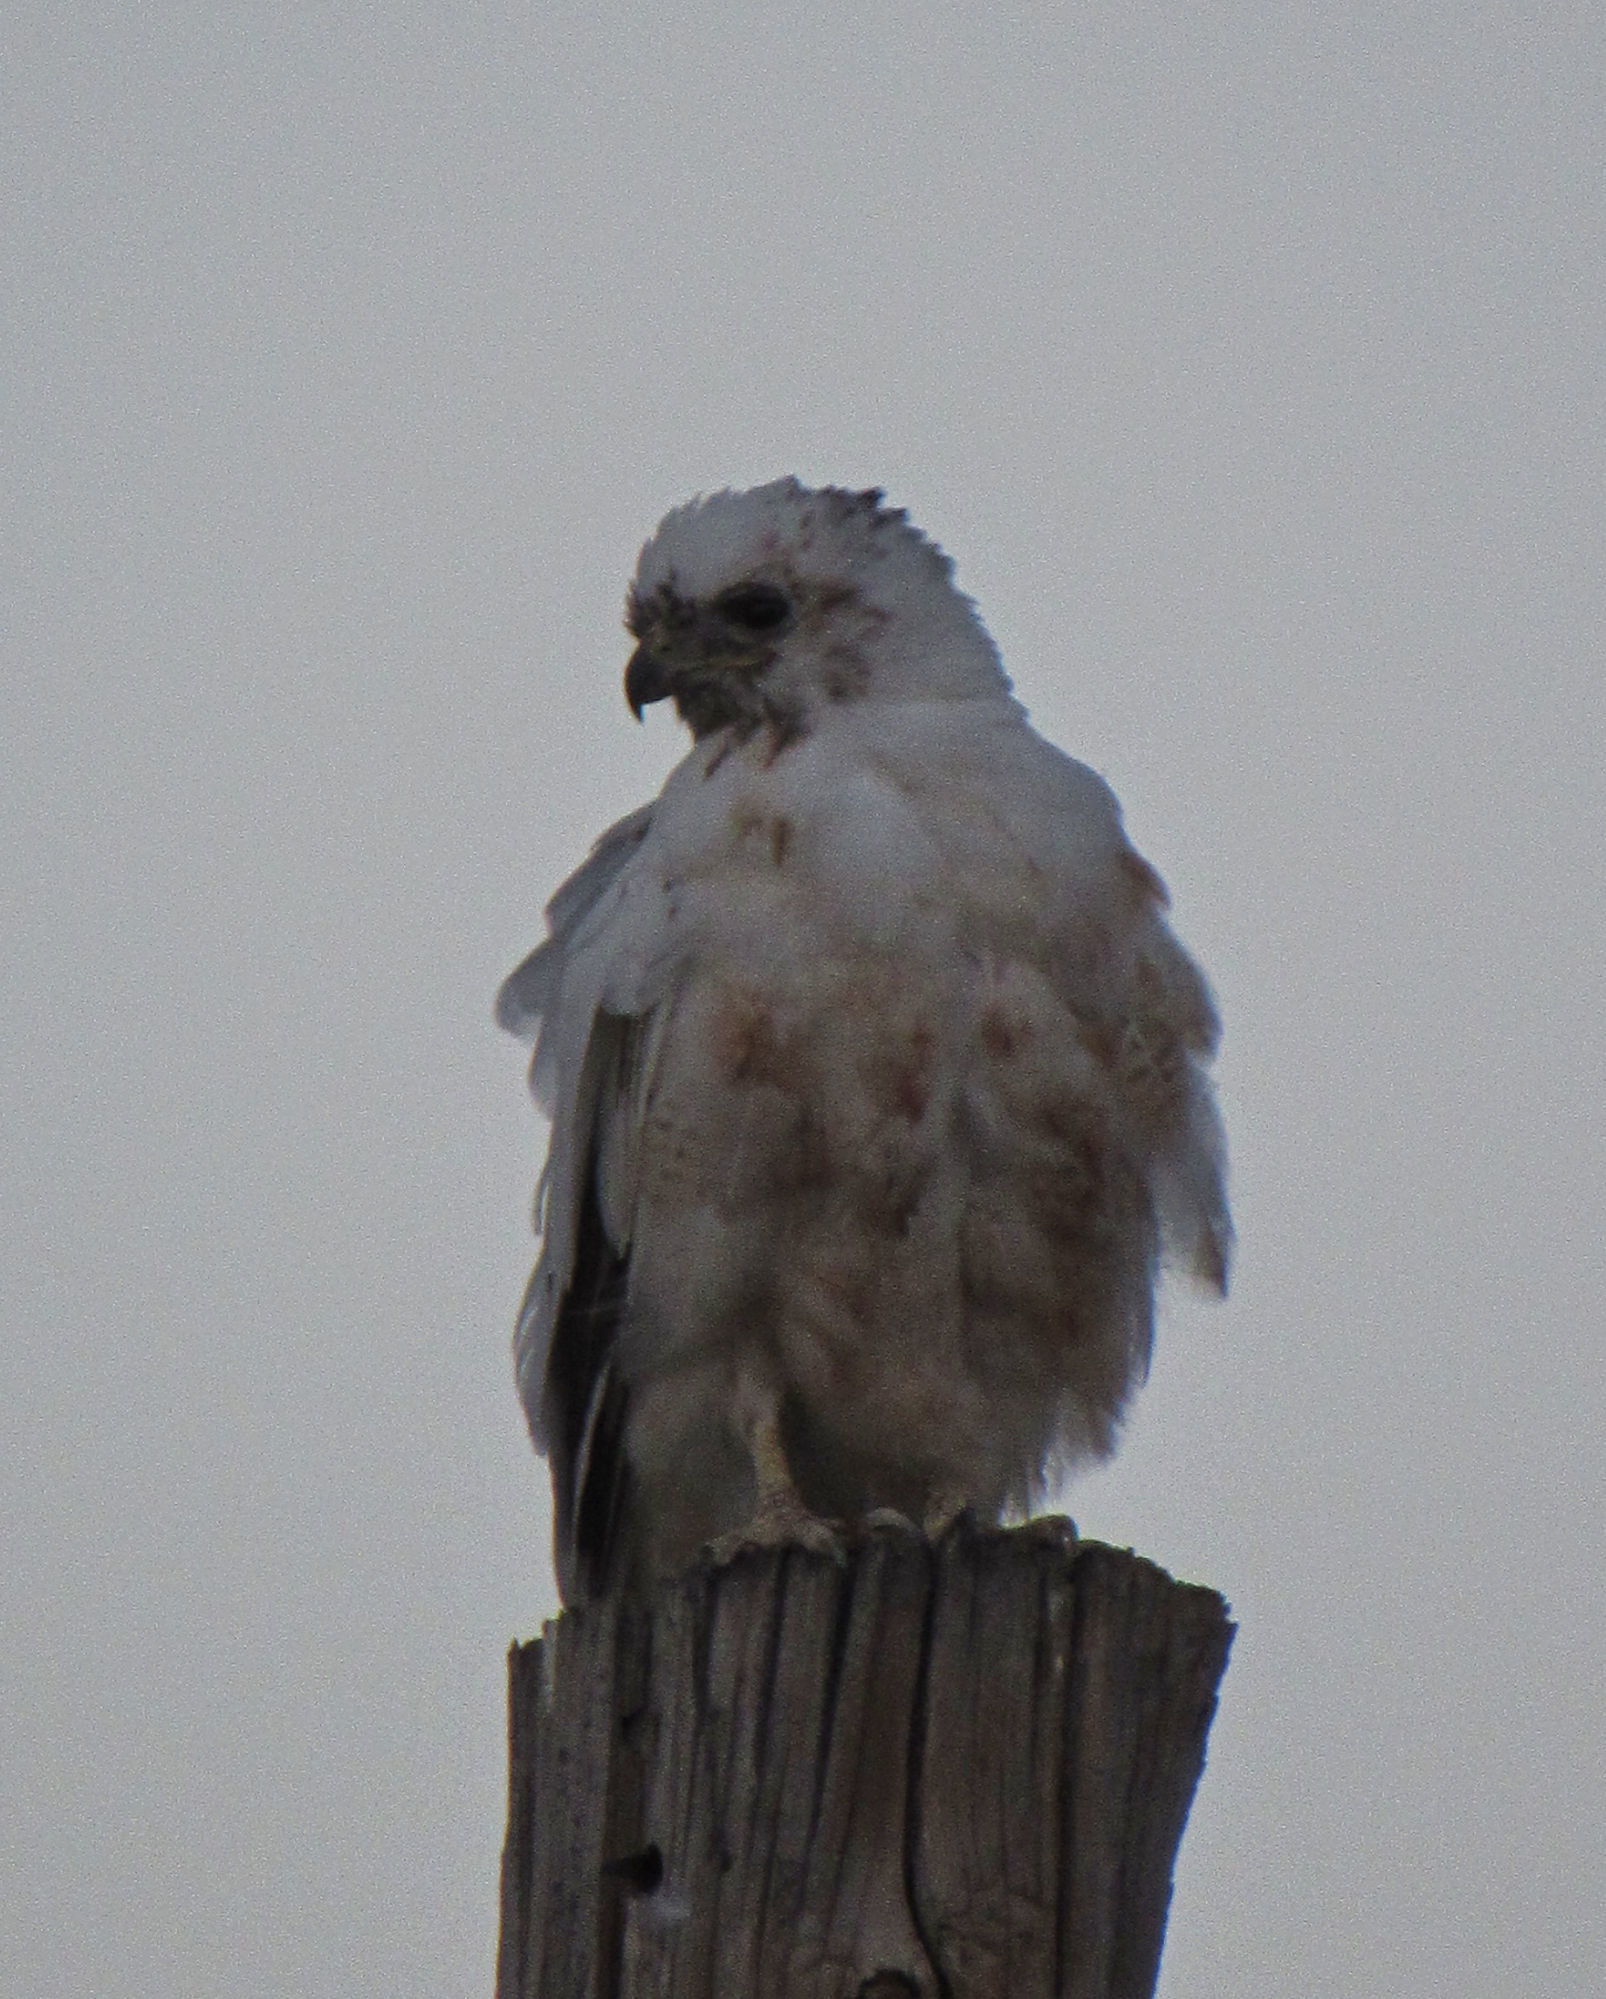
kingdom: Animalia
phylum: Chordata
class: Aves
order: Accipitriformes
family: Accipitridae
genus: Buteo
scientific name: Buteo jamaicensis
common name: Red-tailed hawk
